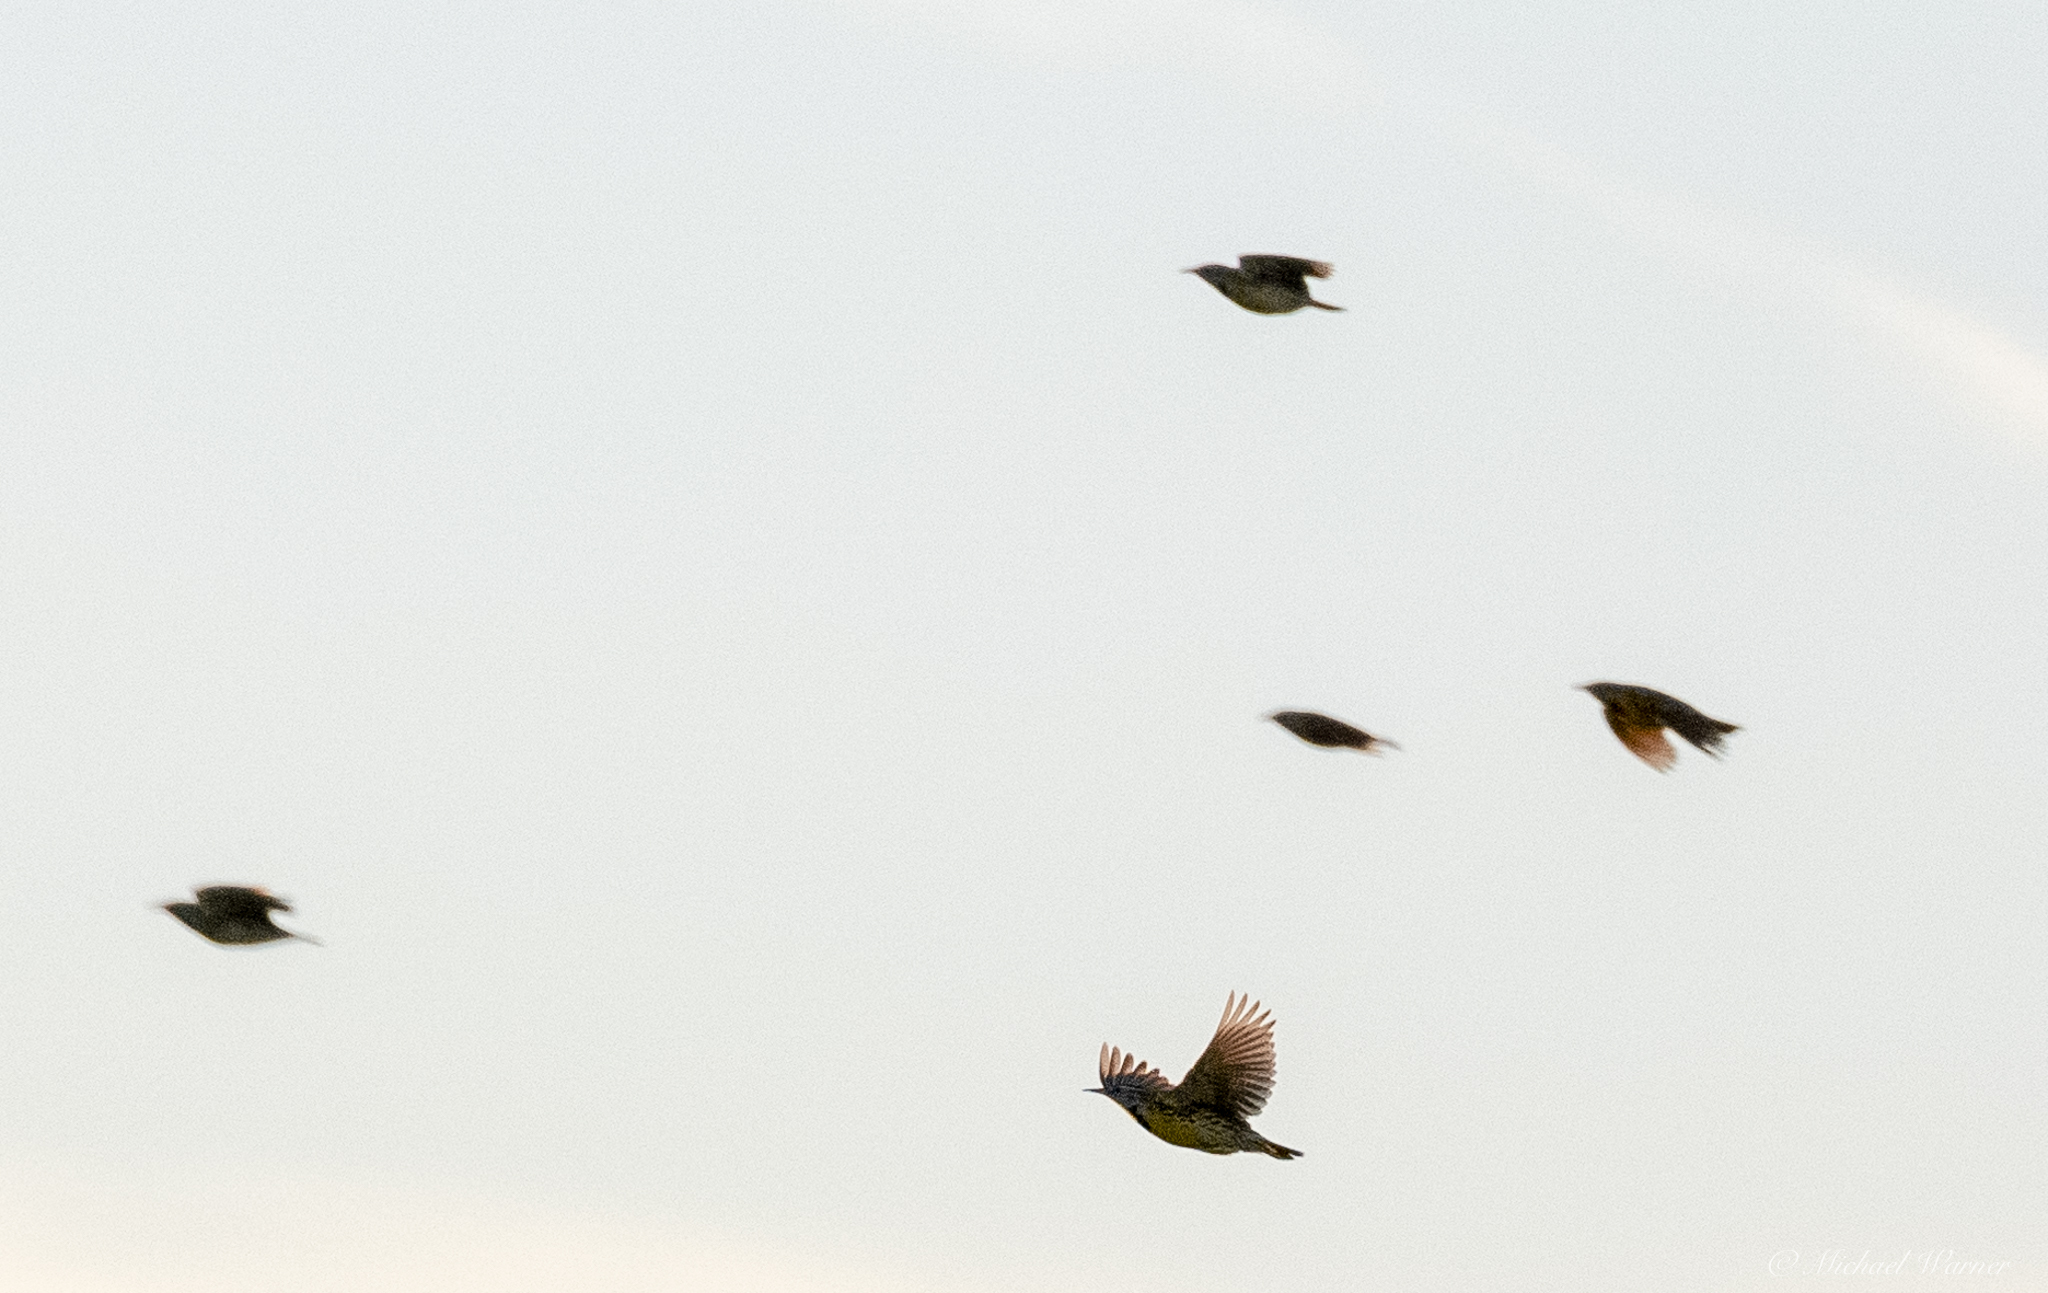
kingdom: Animalia
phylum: Chordata
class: Aves
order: Passeriformes
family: Icteridae
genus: Sturnella
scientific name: Sturnella neglecta
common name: Western meadowlark
